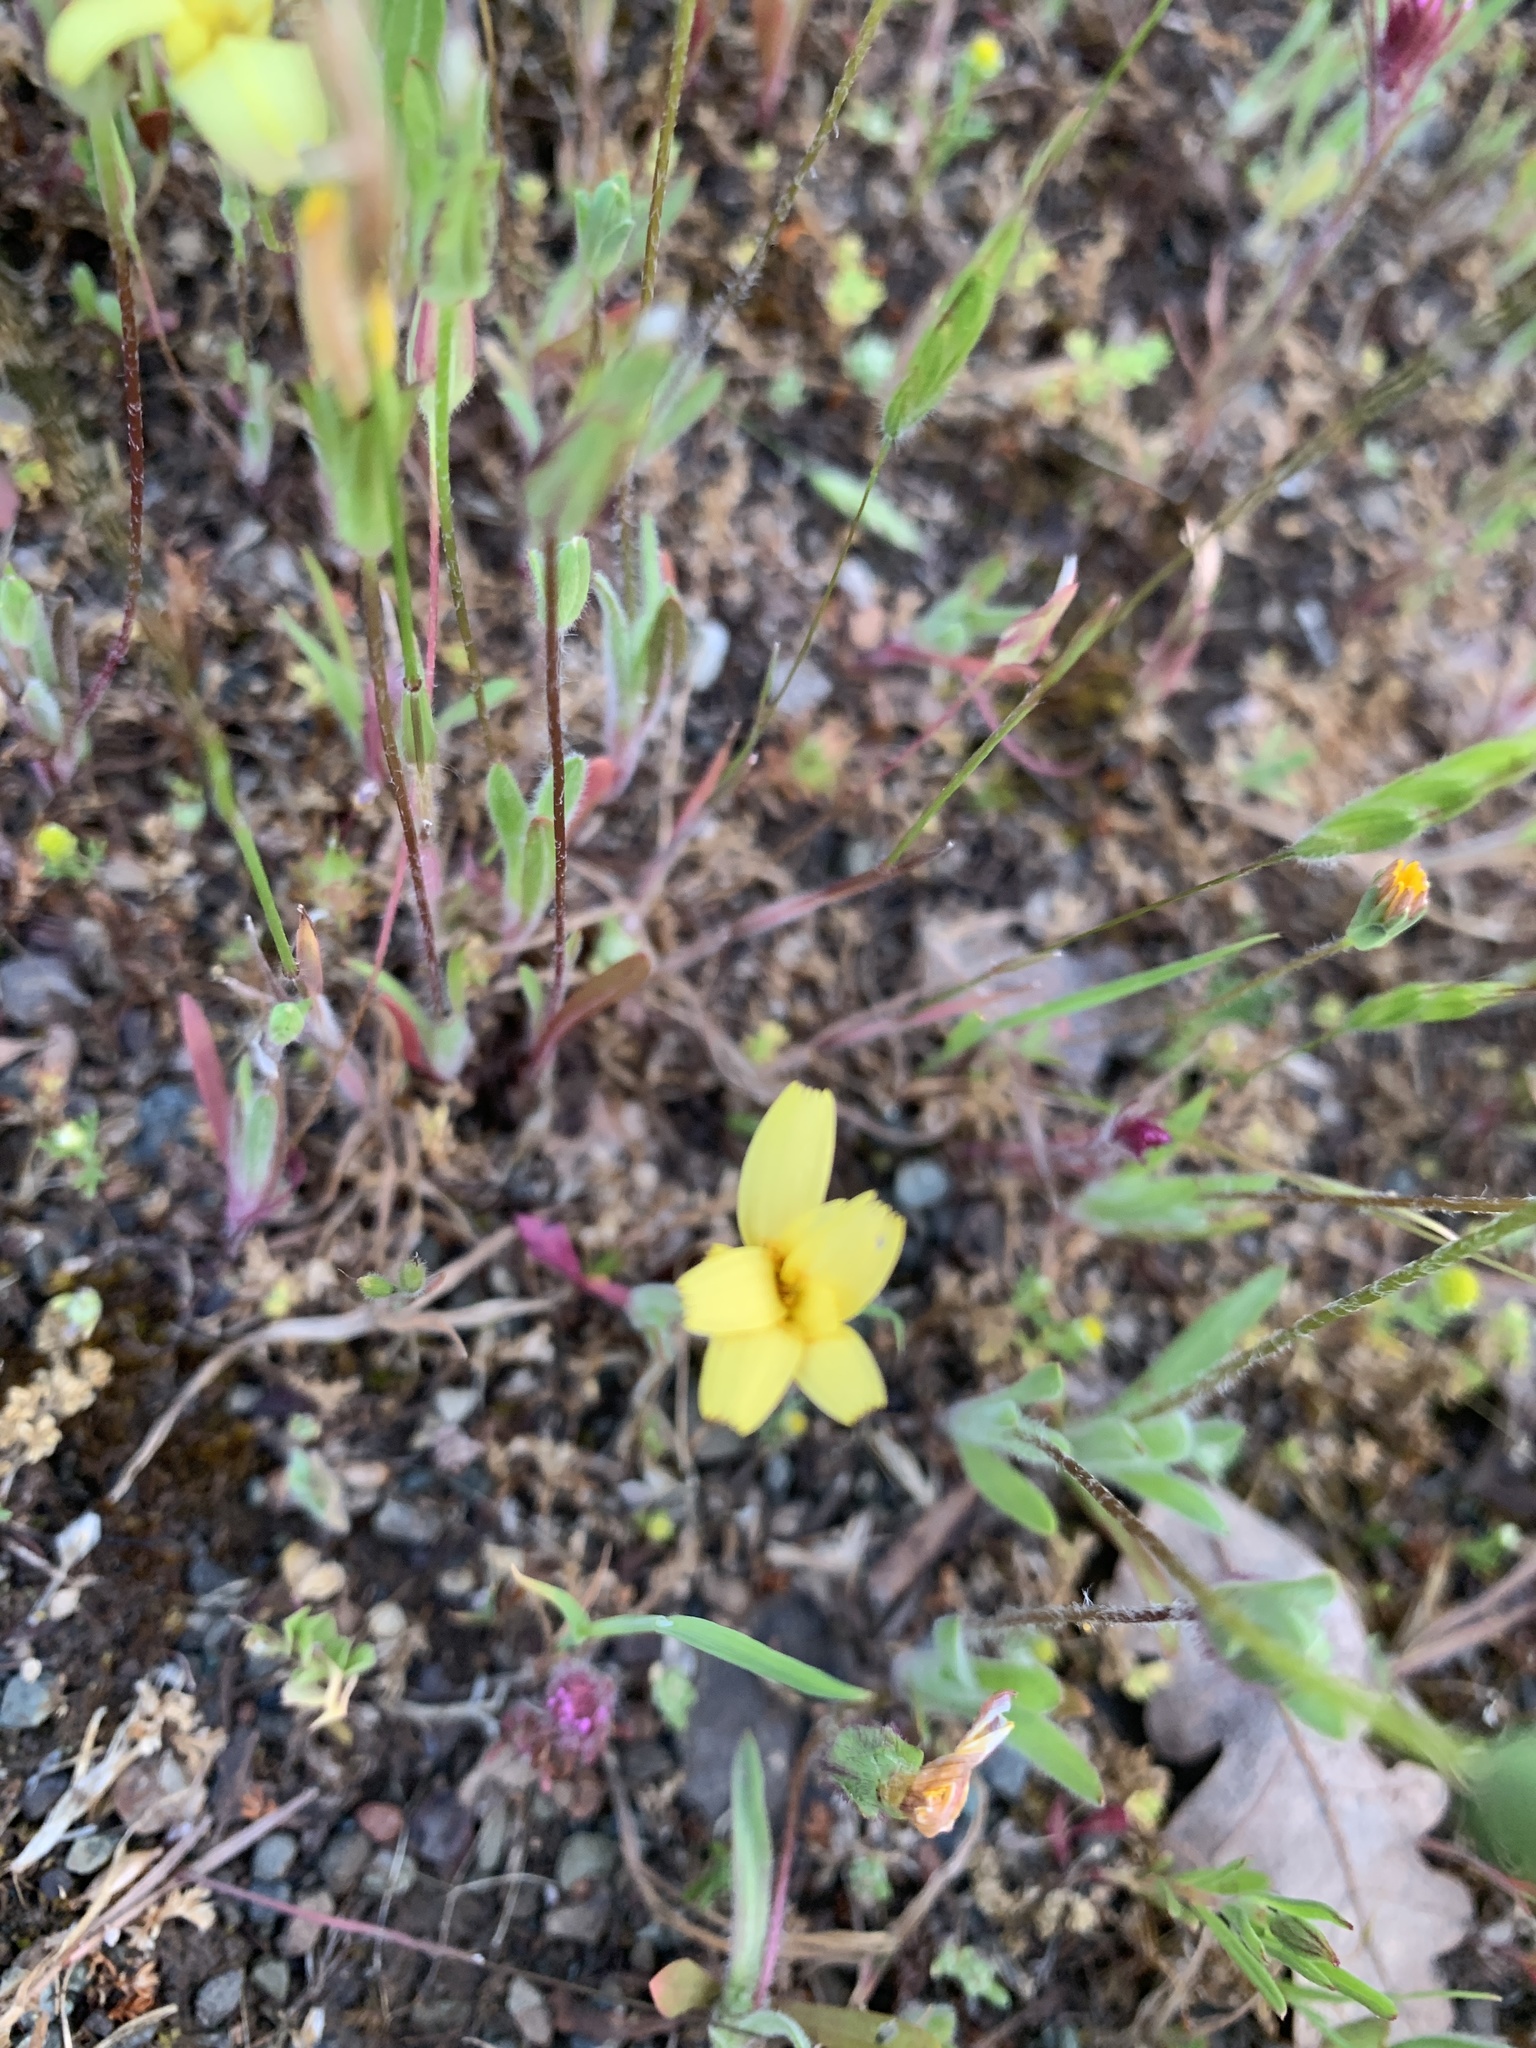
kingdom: Plantae
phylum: Tracheophyta
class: Magnoliopsida
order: Asterales
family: Asteraceae
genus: Agoseris
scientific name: Agoseris heterophylla
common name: Annual agoseris
